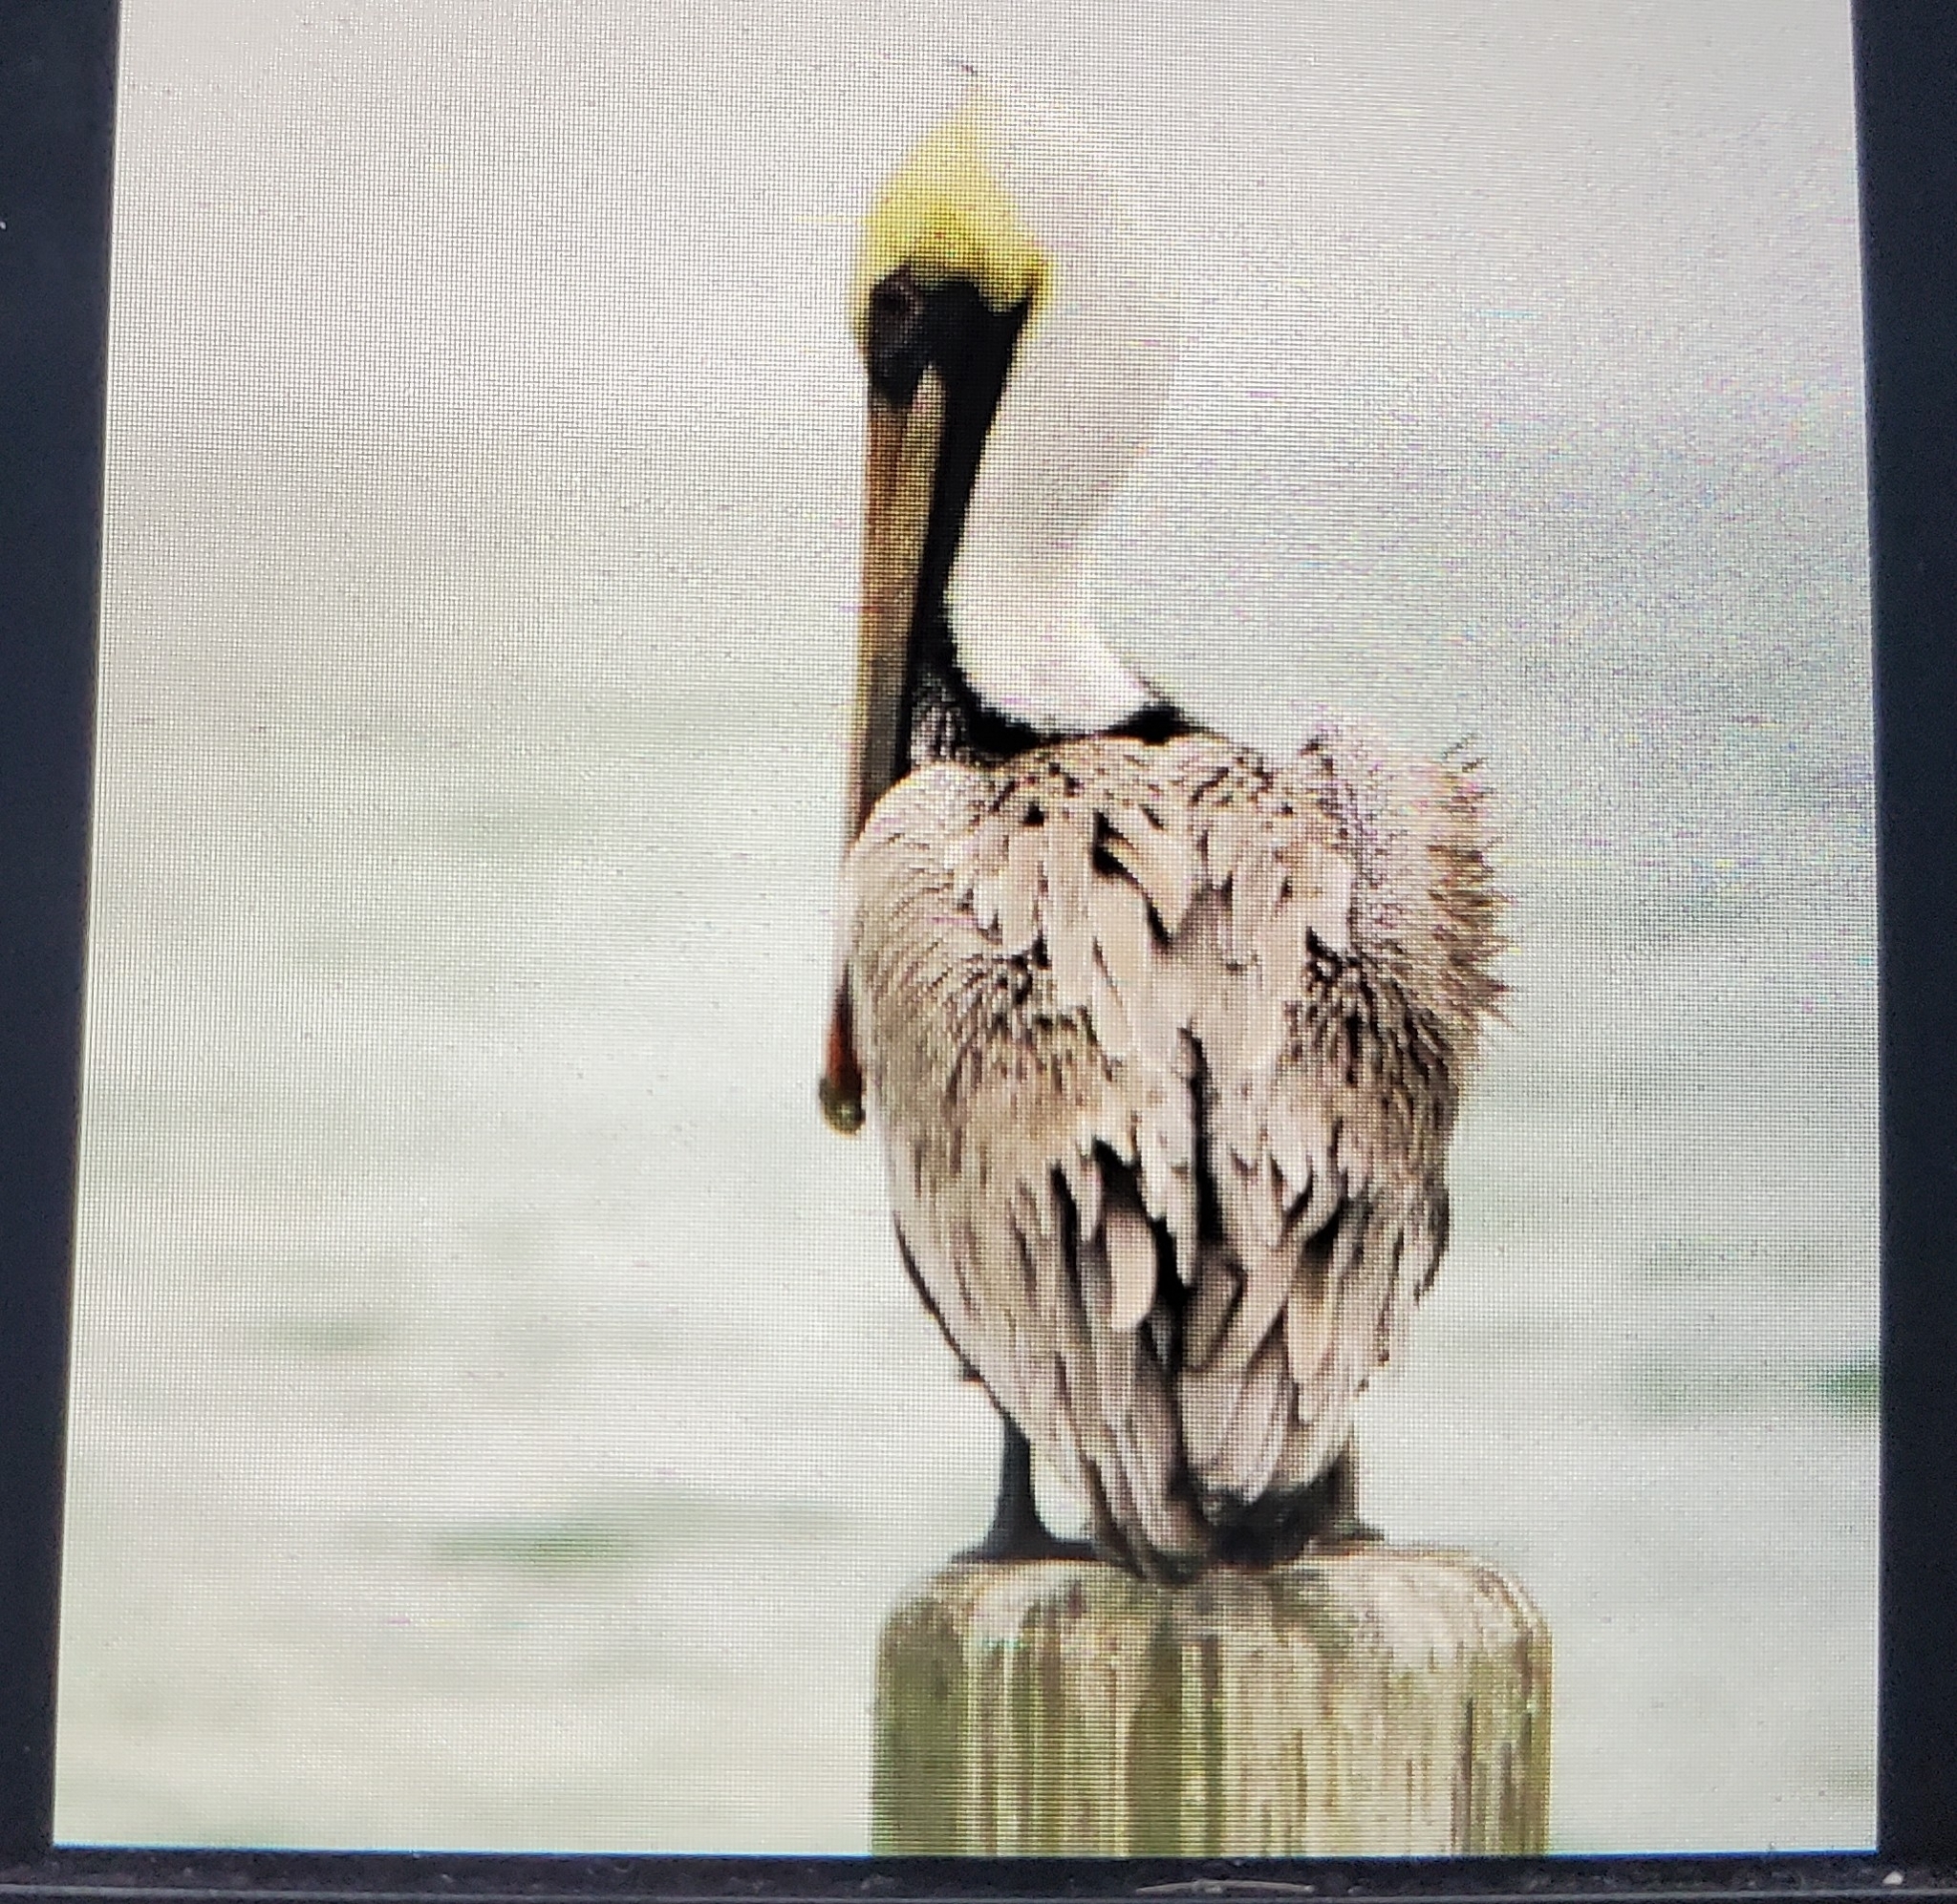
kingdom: Animalia
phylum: Chordata
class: Aves
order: Pelecaniformes
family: Pelecanidae
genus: Pelecanus
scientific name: Pelecanus occidentalis
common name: Brown pelican
